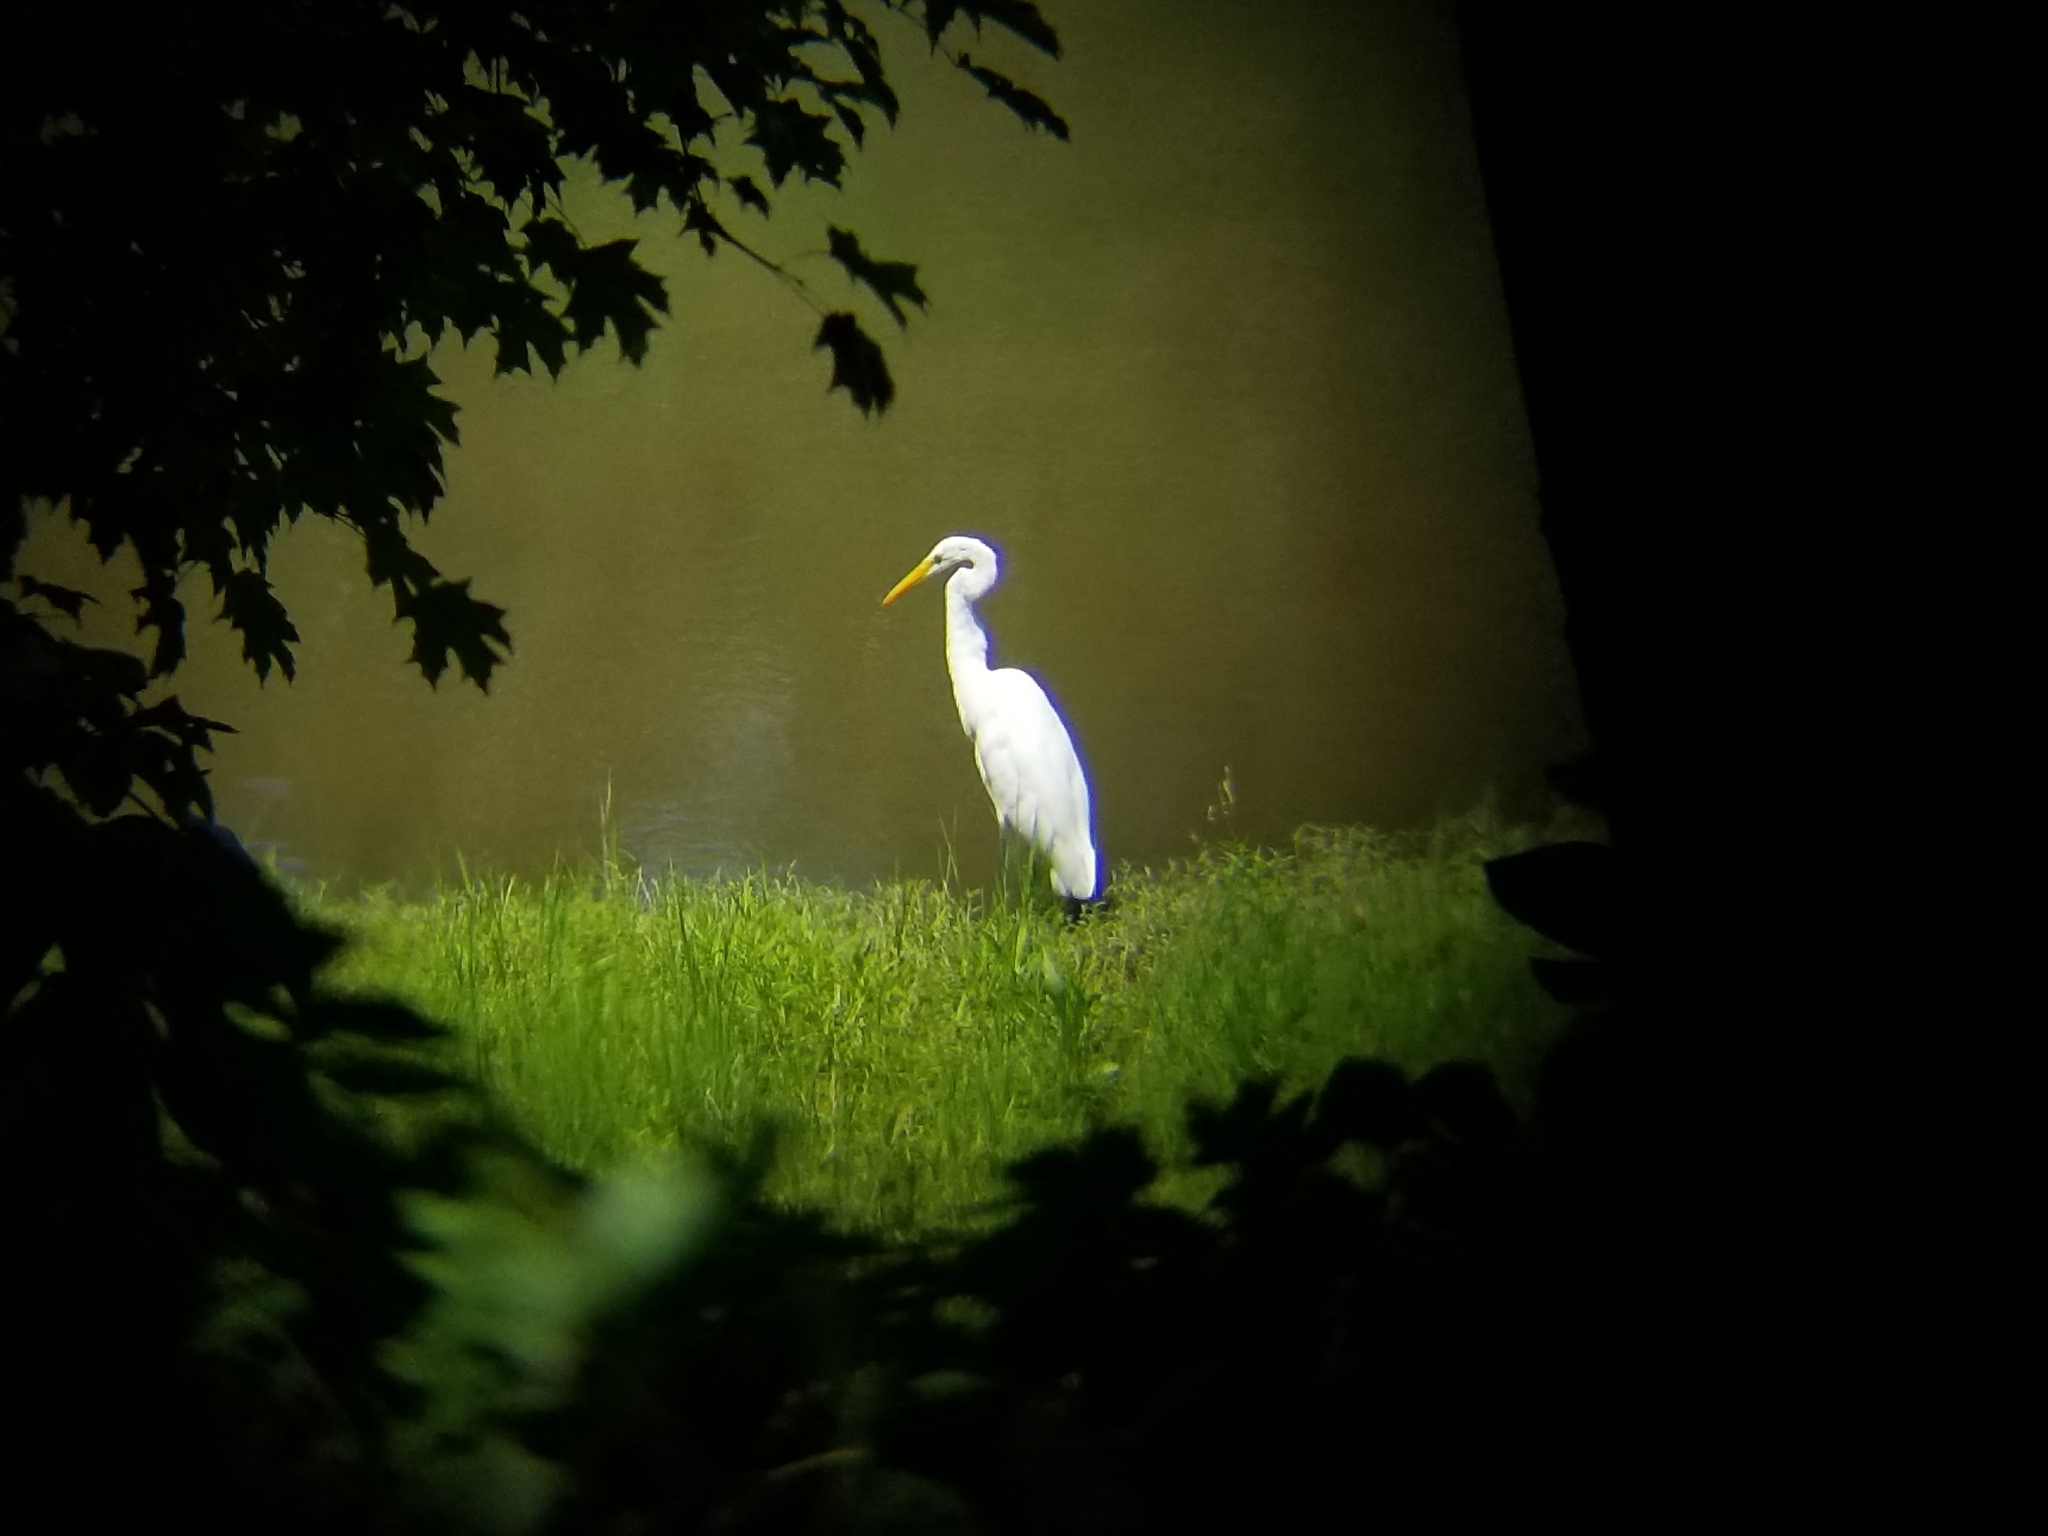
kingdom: Animalia
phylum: Chordata
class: Aves
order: Pelecaniformes
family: Ardeidae
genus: Ardea
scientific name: Ardea alba
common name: Great egret
